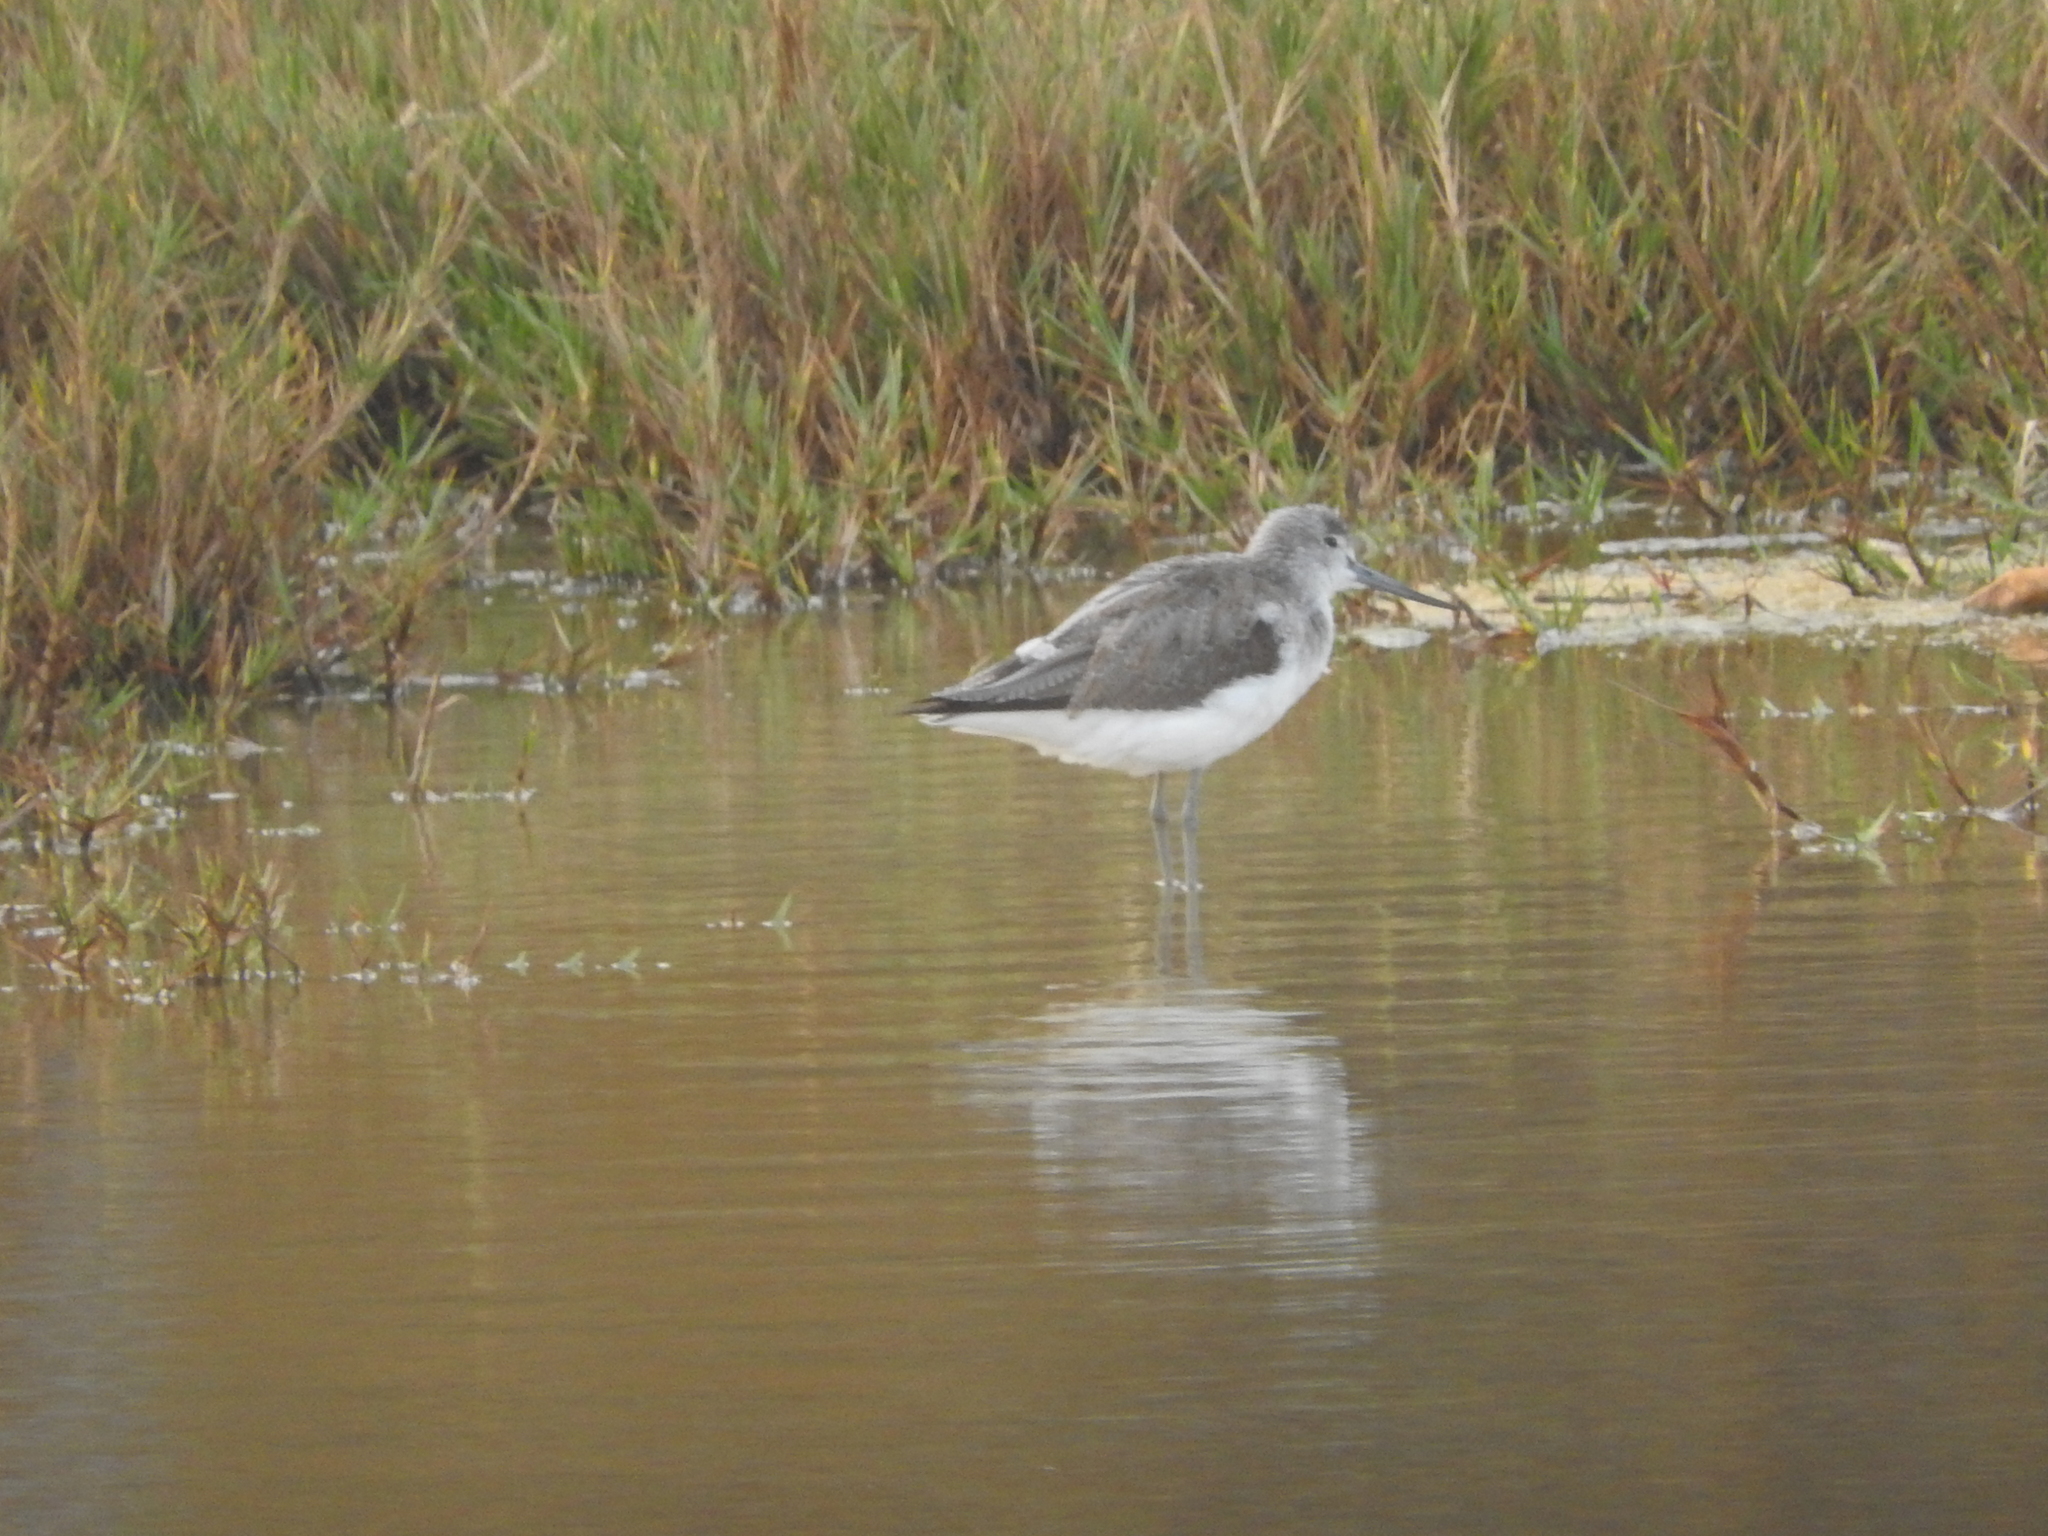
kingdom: Animalia
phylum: Chordata
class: Aves
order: Charadriiformes
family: Scolopacidae
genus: Tringa
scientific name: Tringa nebularia
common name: Common greenshank
